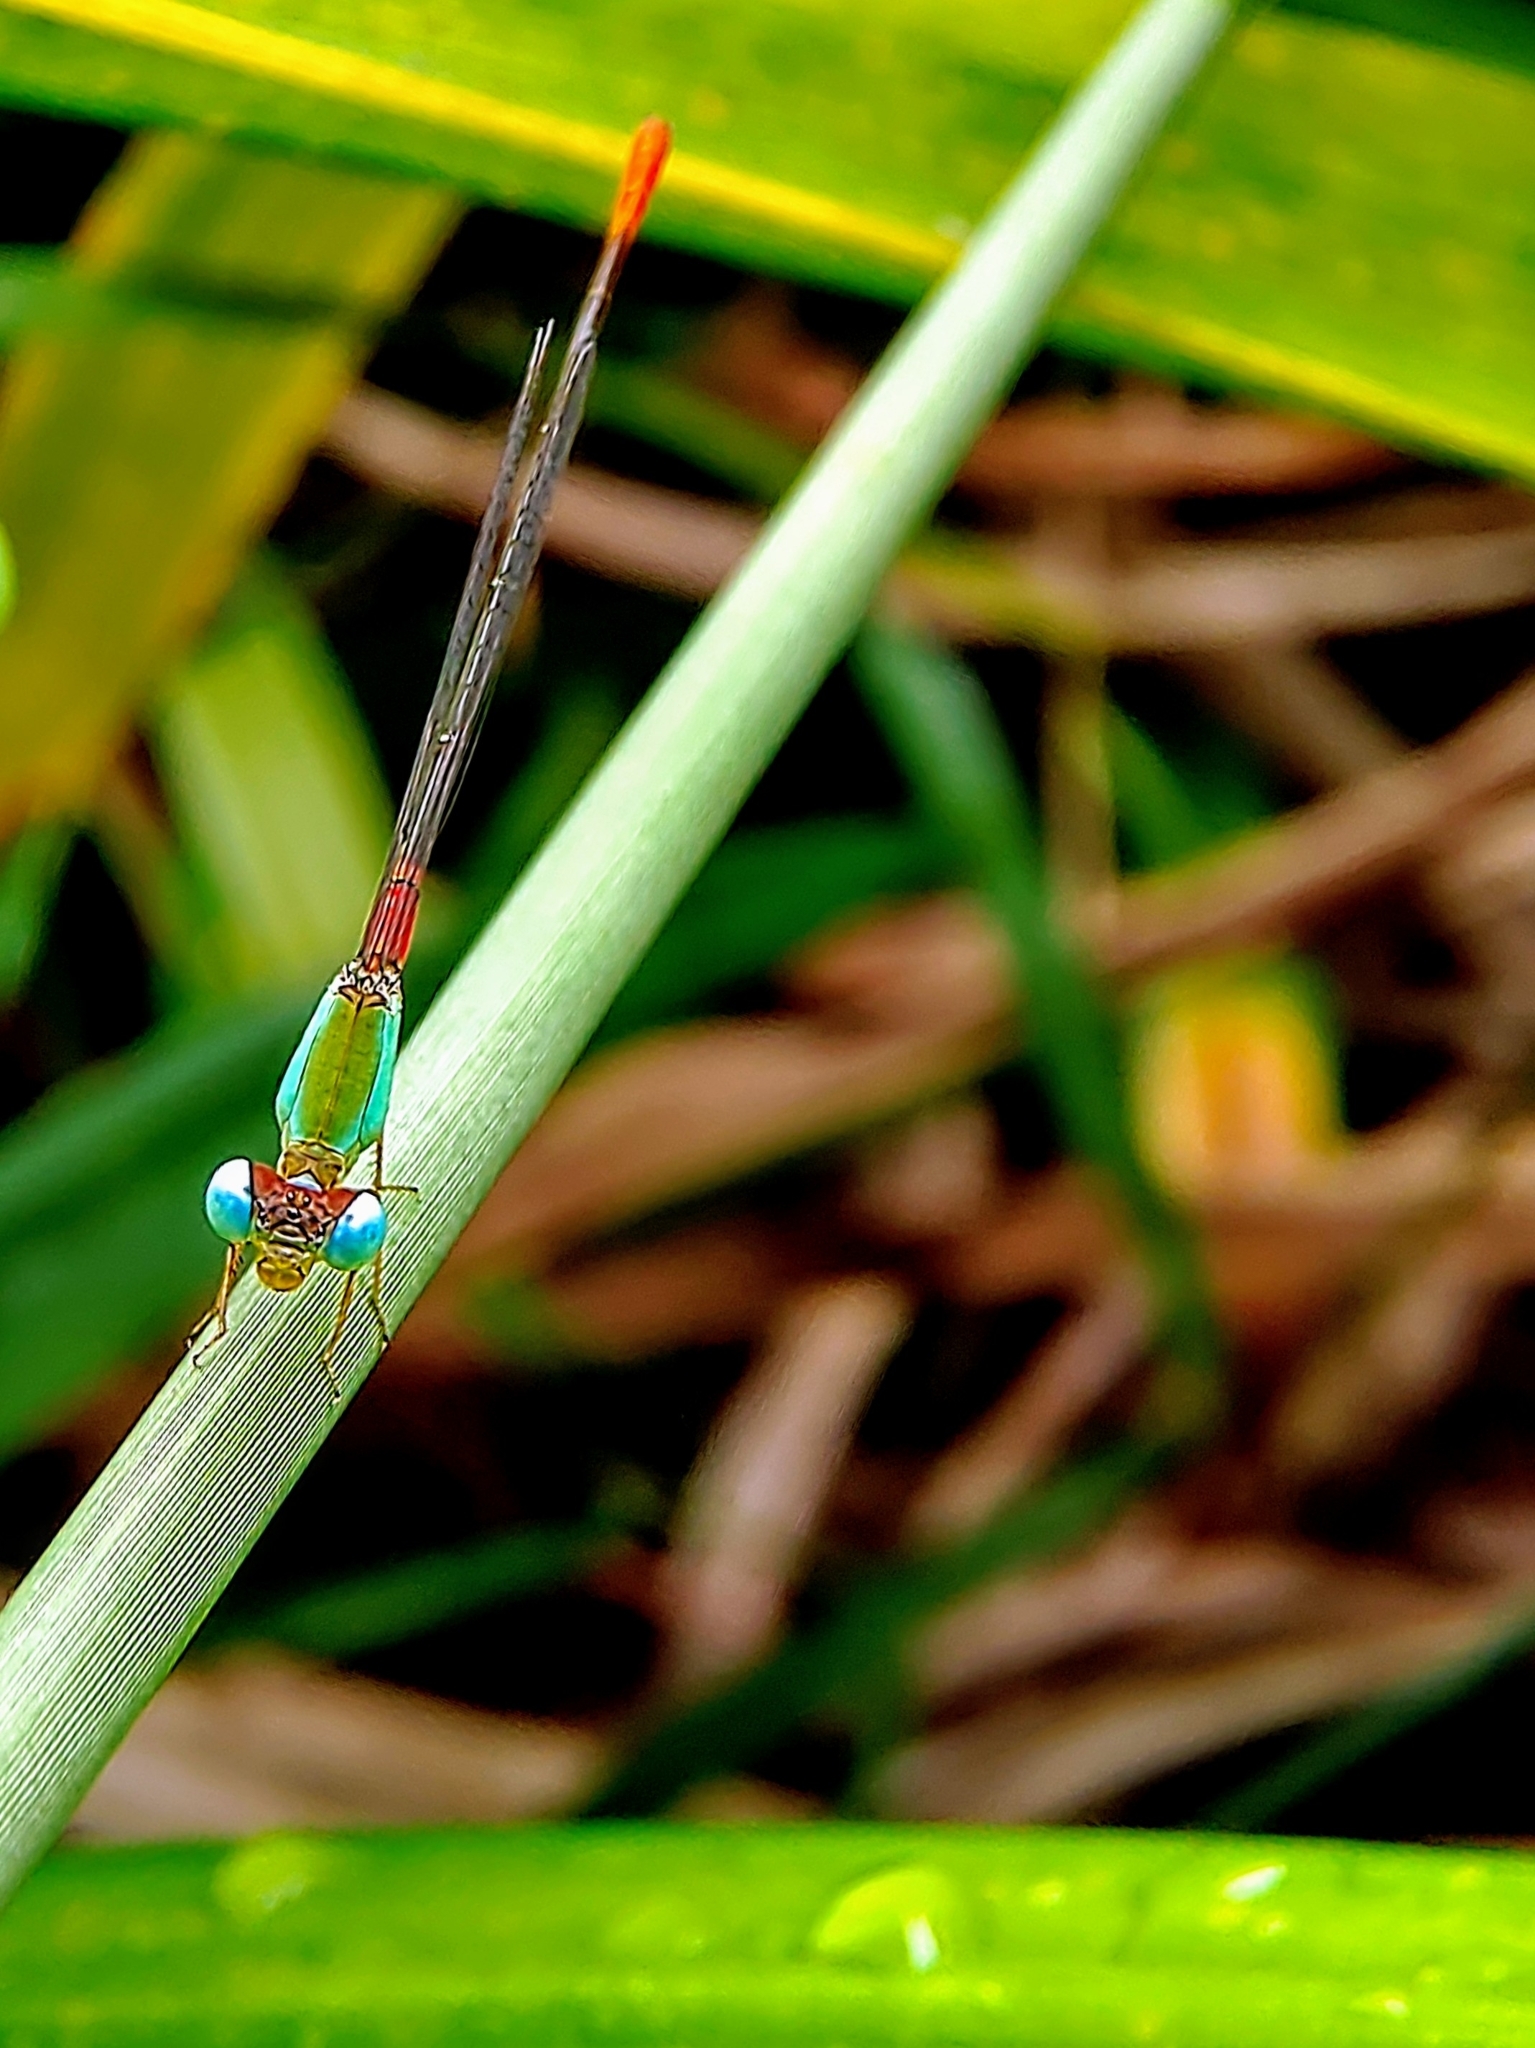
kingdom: Animalia
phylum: Arthropoda
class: Insecta
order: Odonata
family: Coenagrionidae
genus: Ceriagrion
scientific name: Ceriagrion cerinorubellum
